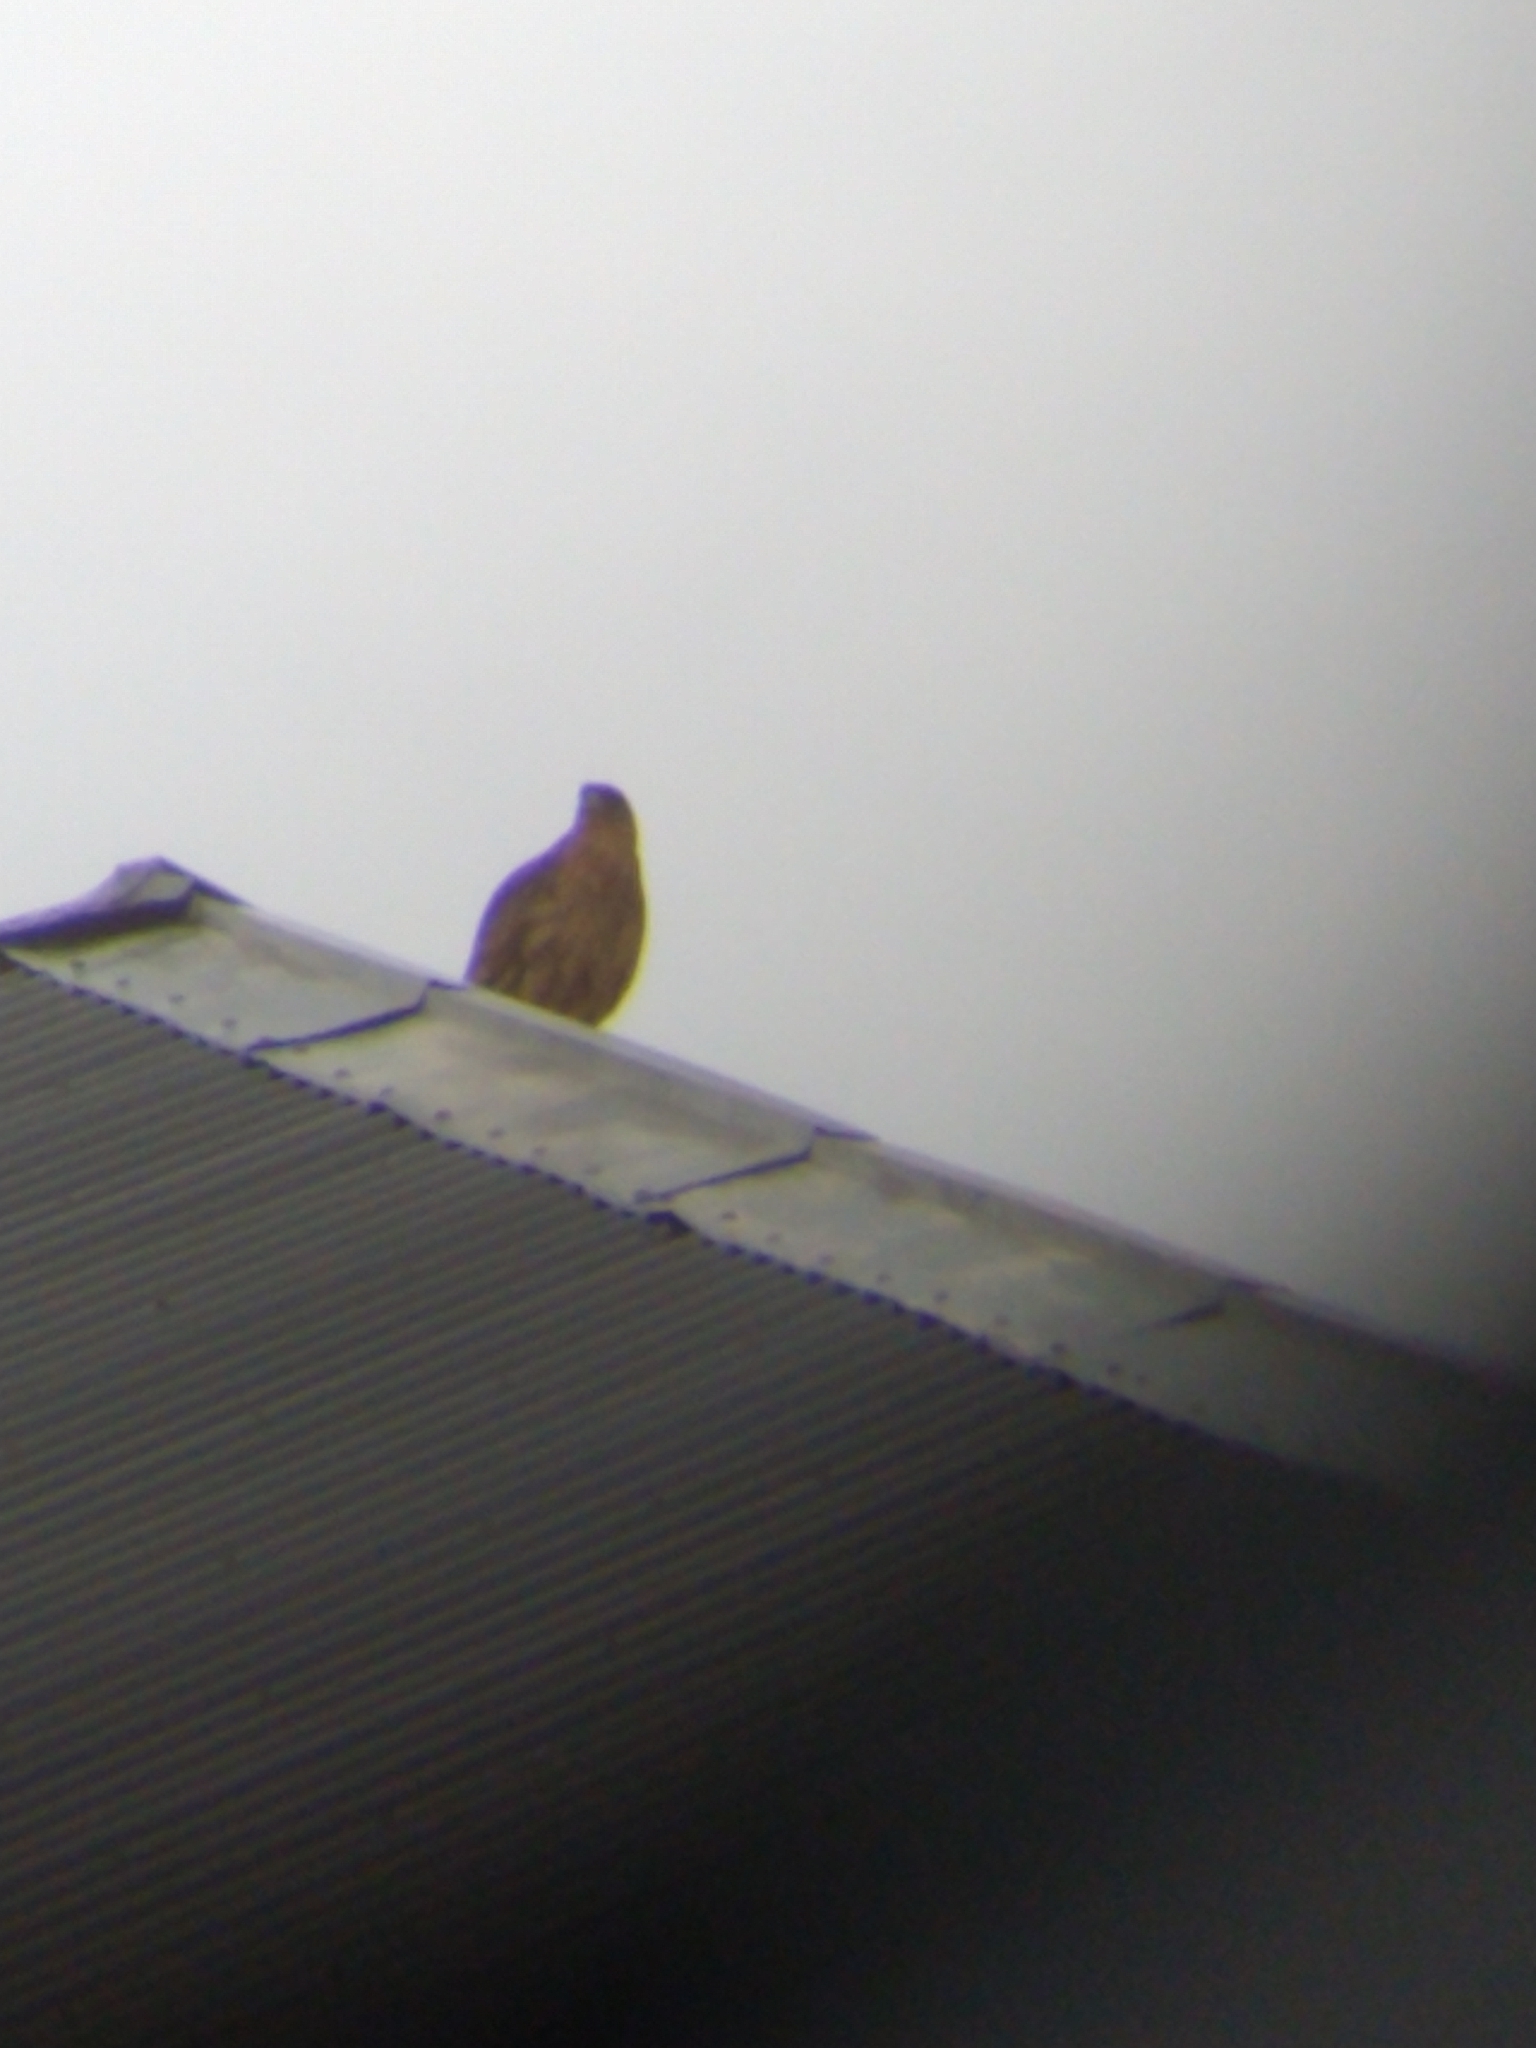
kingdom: Animalia
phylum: Chordata
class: Aves
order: Falconiformes
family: Falconidae
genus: Daptrius
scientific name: Daptrius
